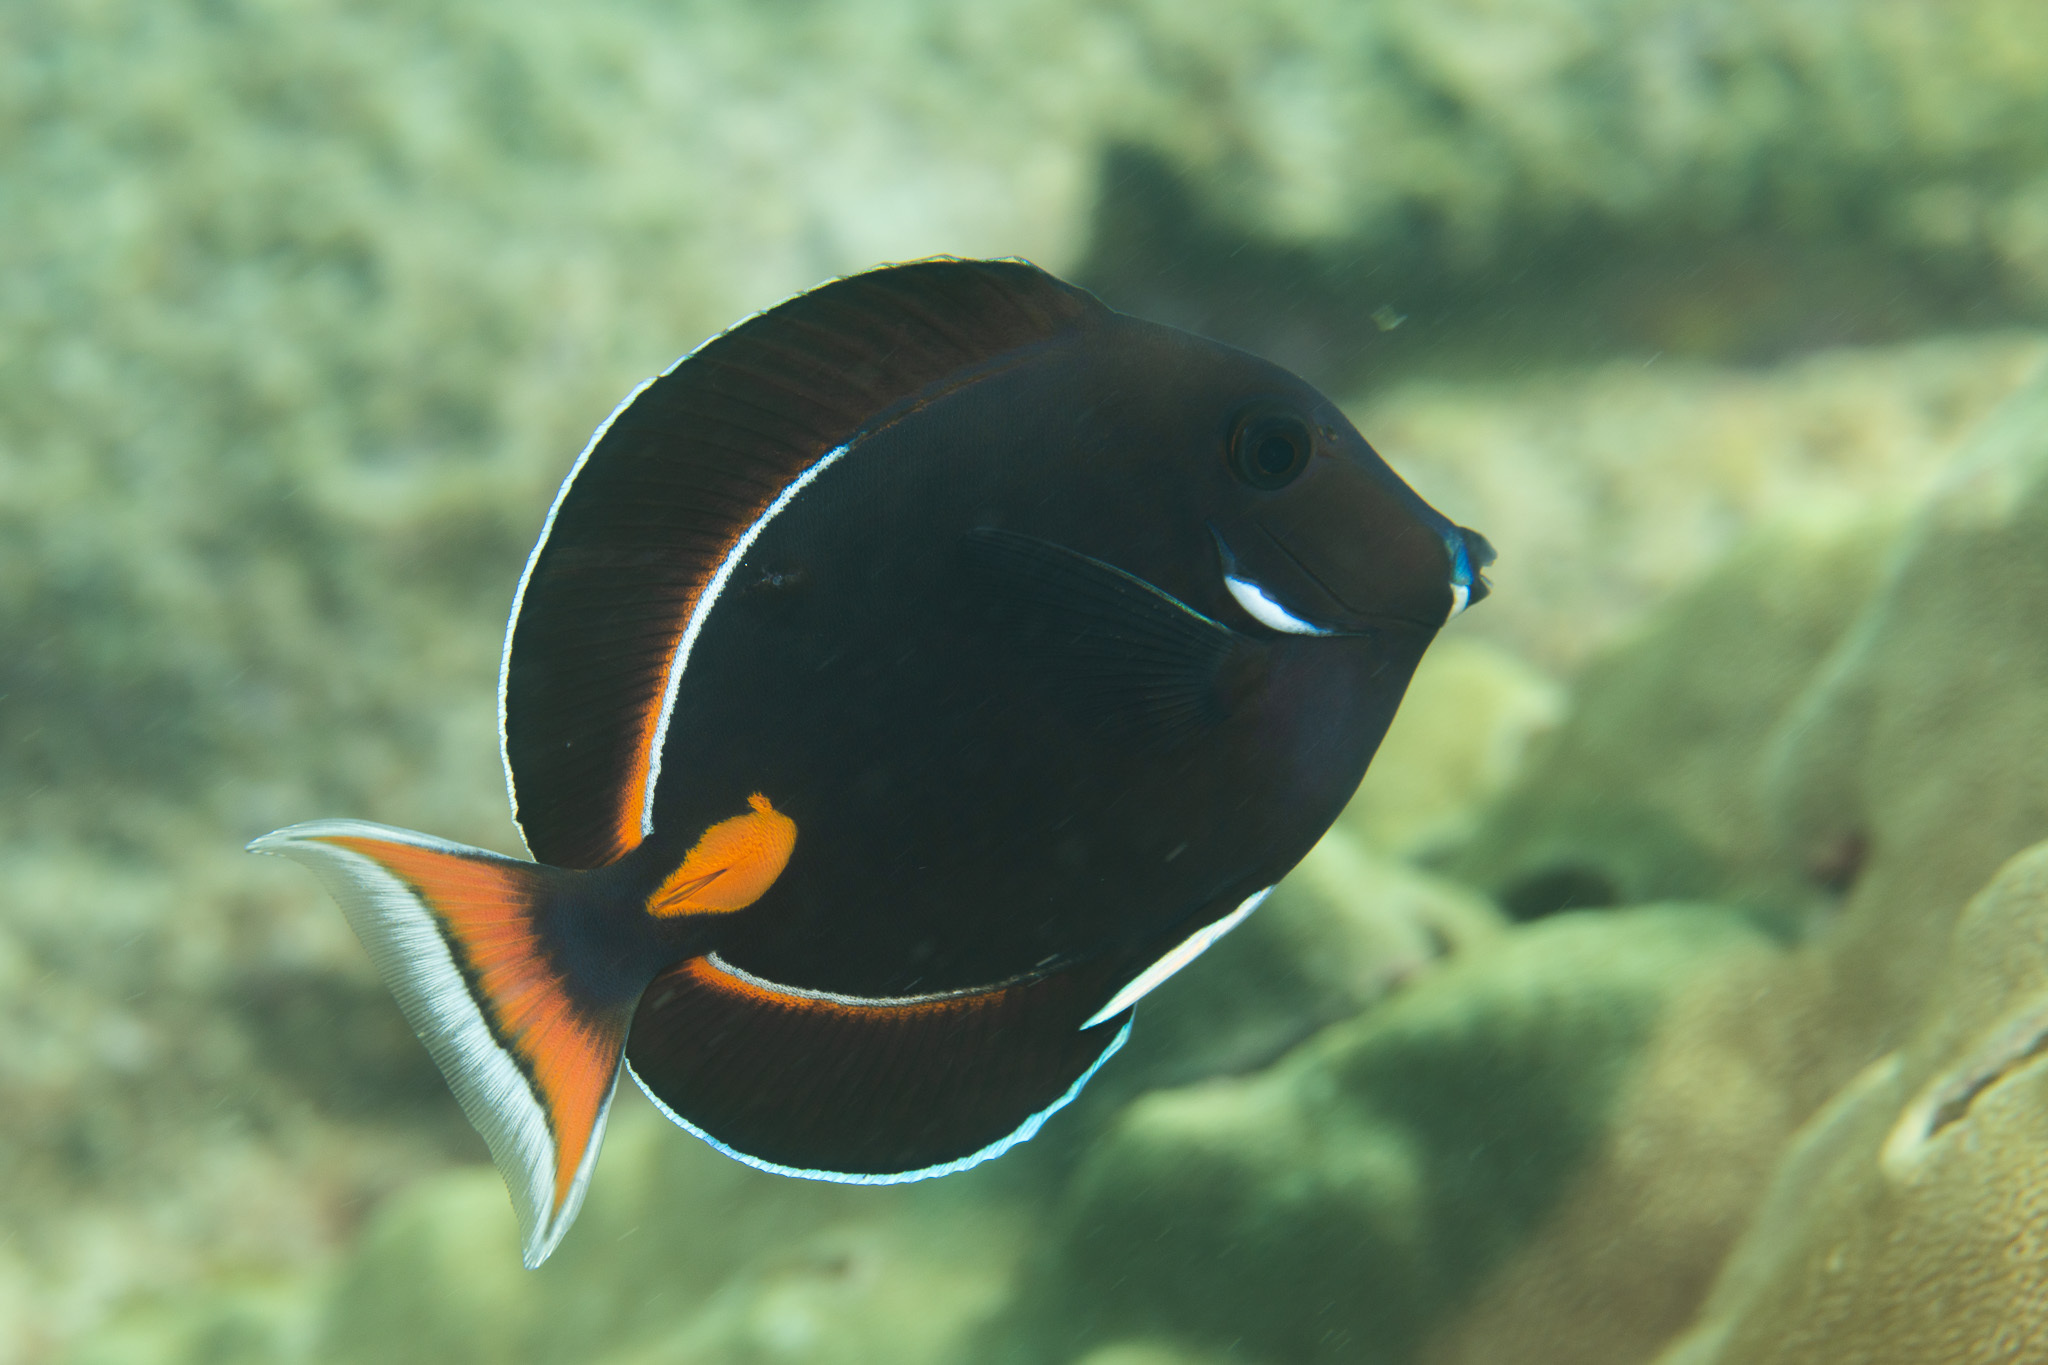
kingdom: Animalia
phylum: Chordata
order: Perciformes
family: Acanthuridae
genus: Acanthurus
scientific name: Acanthurus achilles
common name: Achilles tang
